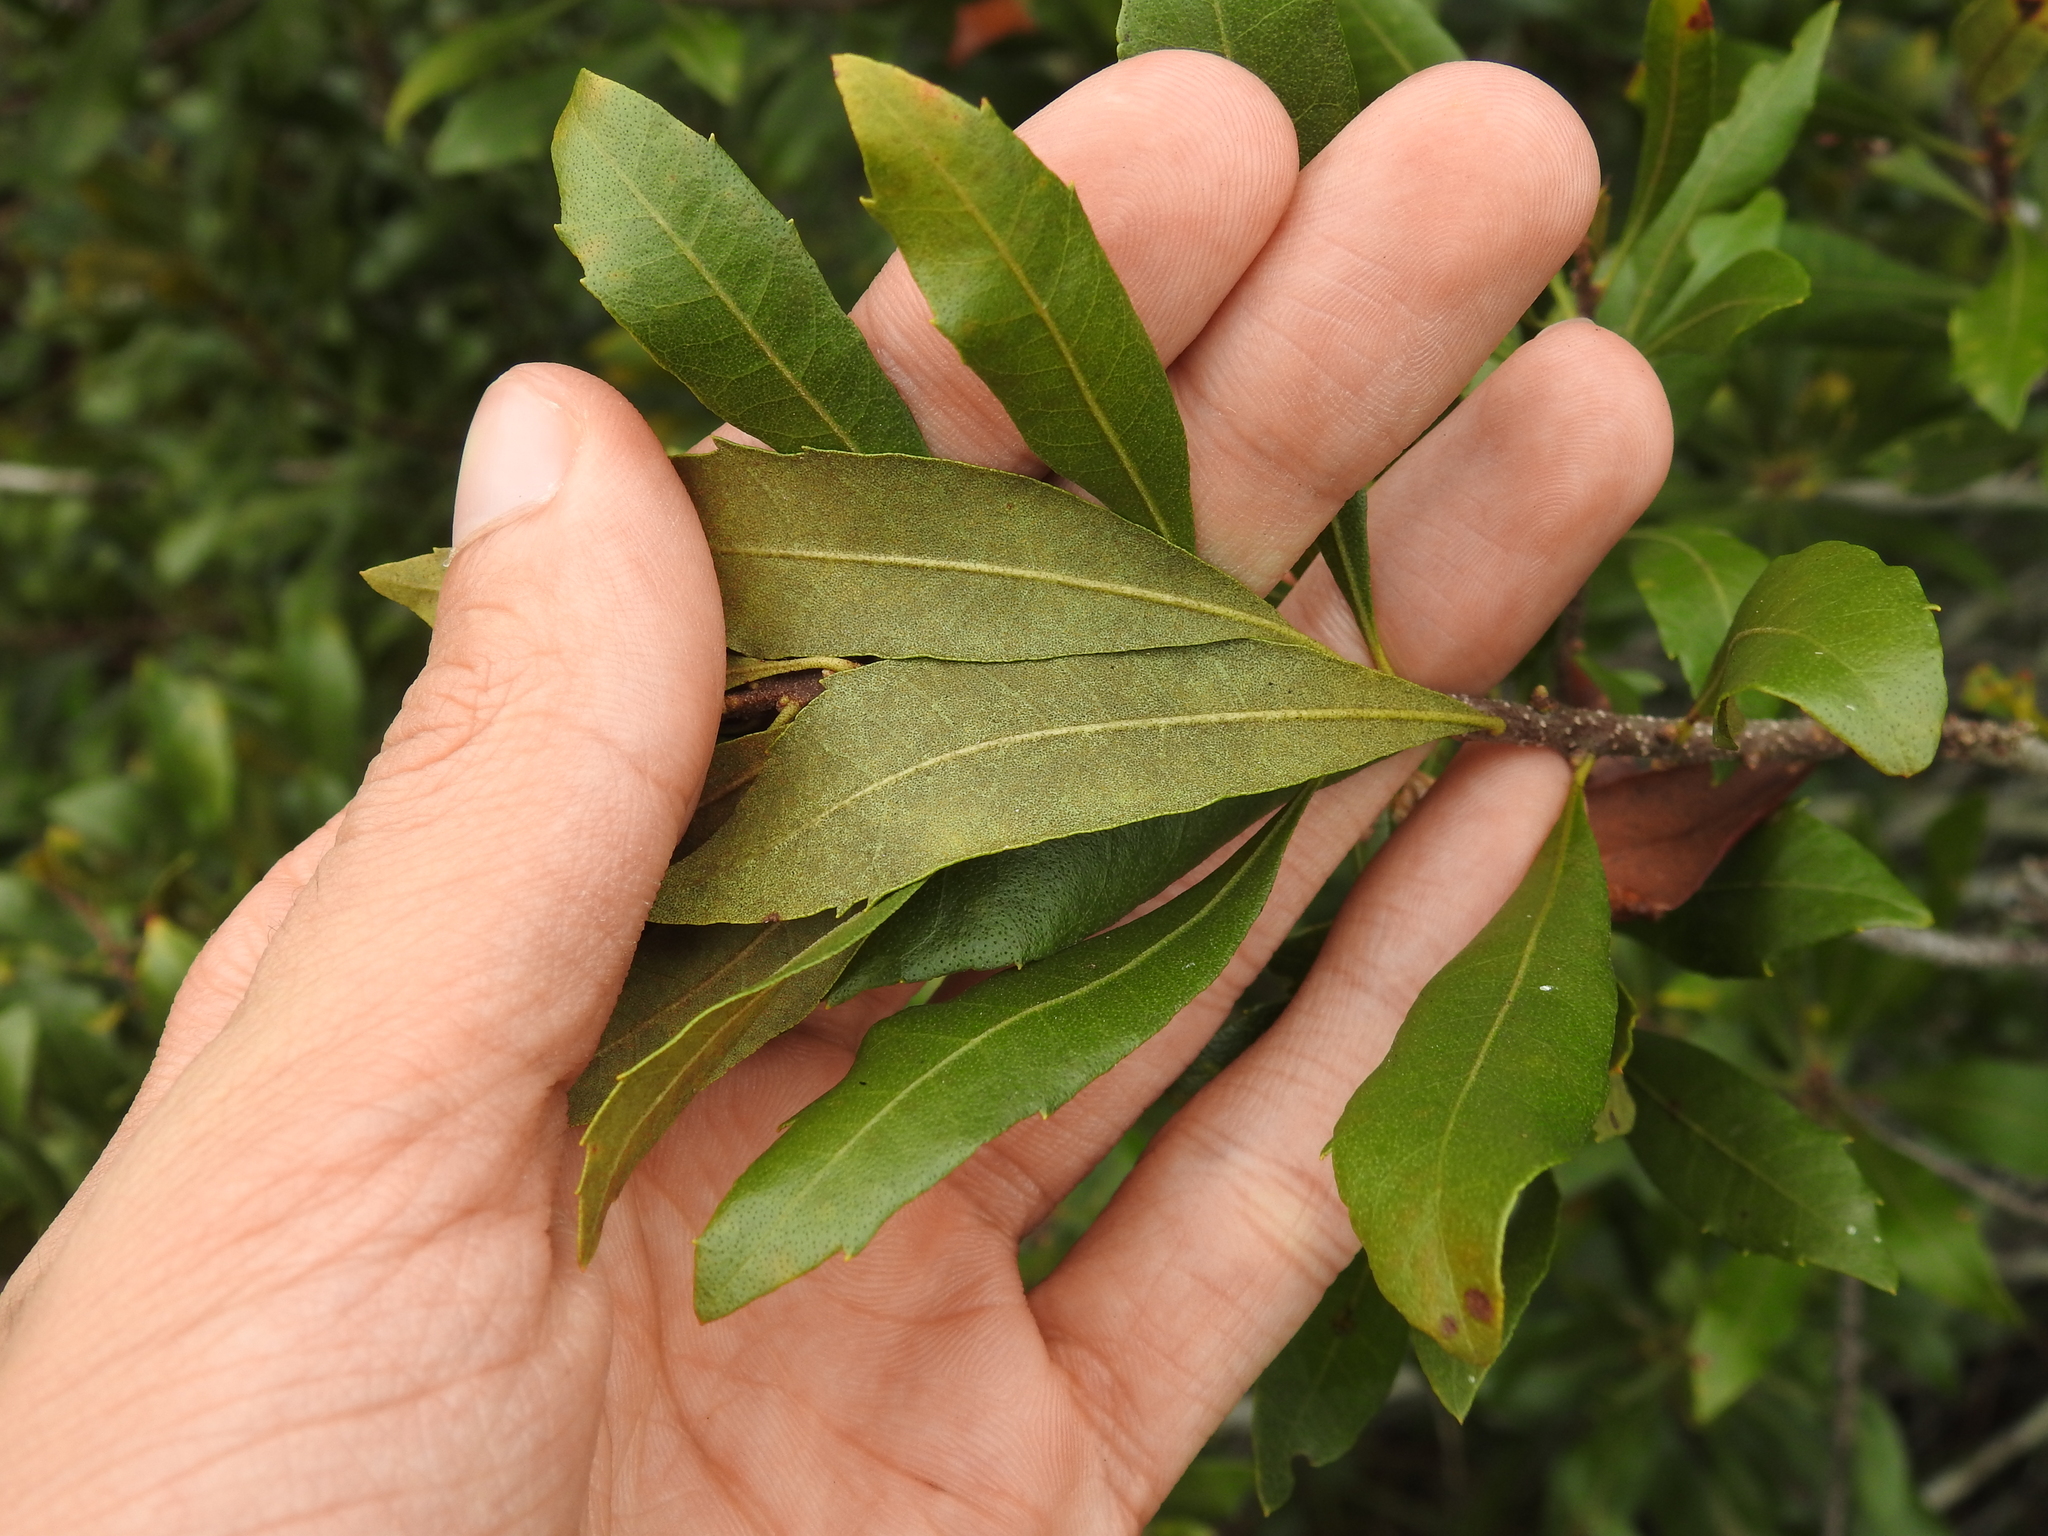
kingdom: Plantae
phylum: Tracheophyta
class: Magnoliopsida
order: Fagales
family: Myricaceae
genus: Morella
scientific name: Morella cerifera
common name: Wax myrtle
